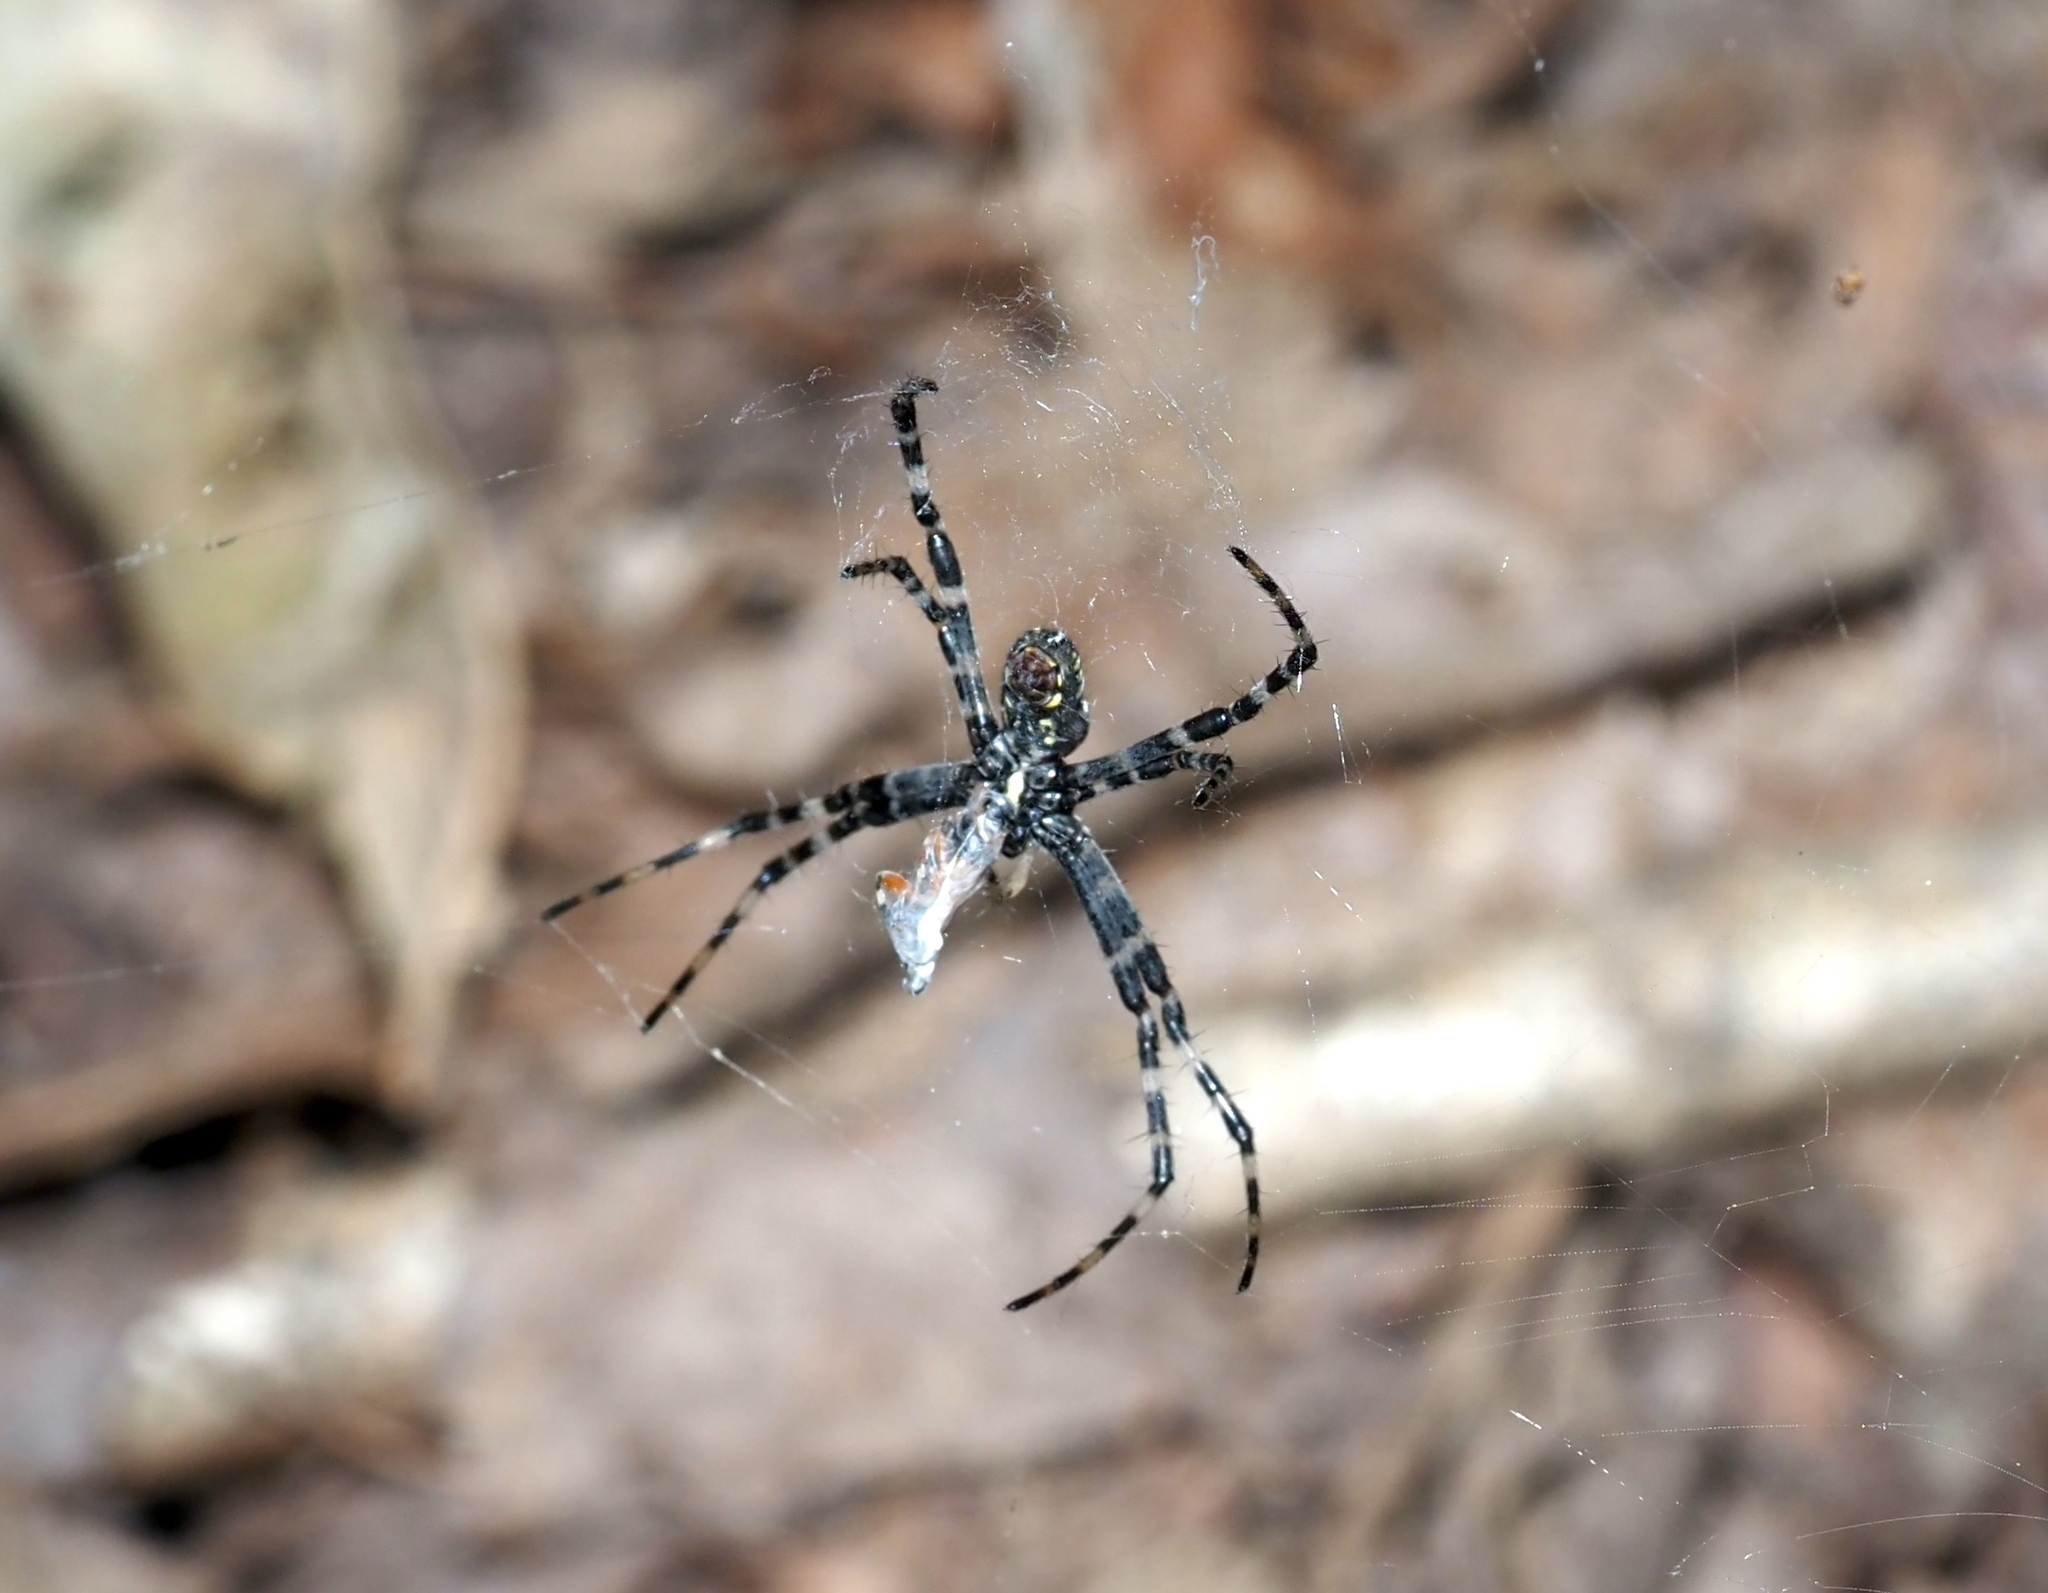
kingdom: Animalia
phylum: Arthropoda
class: Arachnida
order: Araneae
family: Araneidae
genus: Argiope
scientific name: Argiope aurantia
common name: Orb weavers
